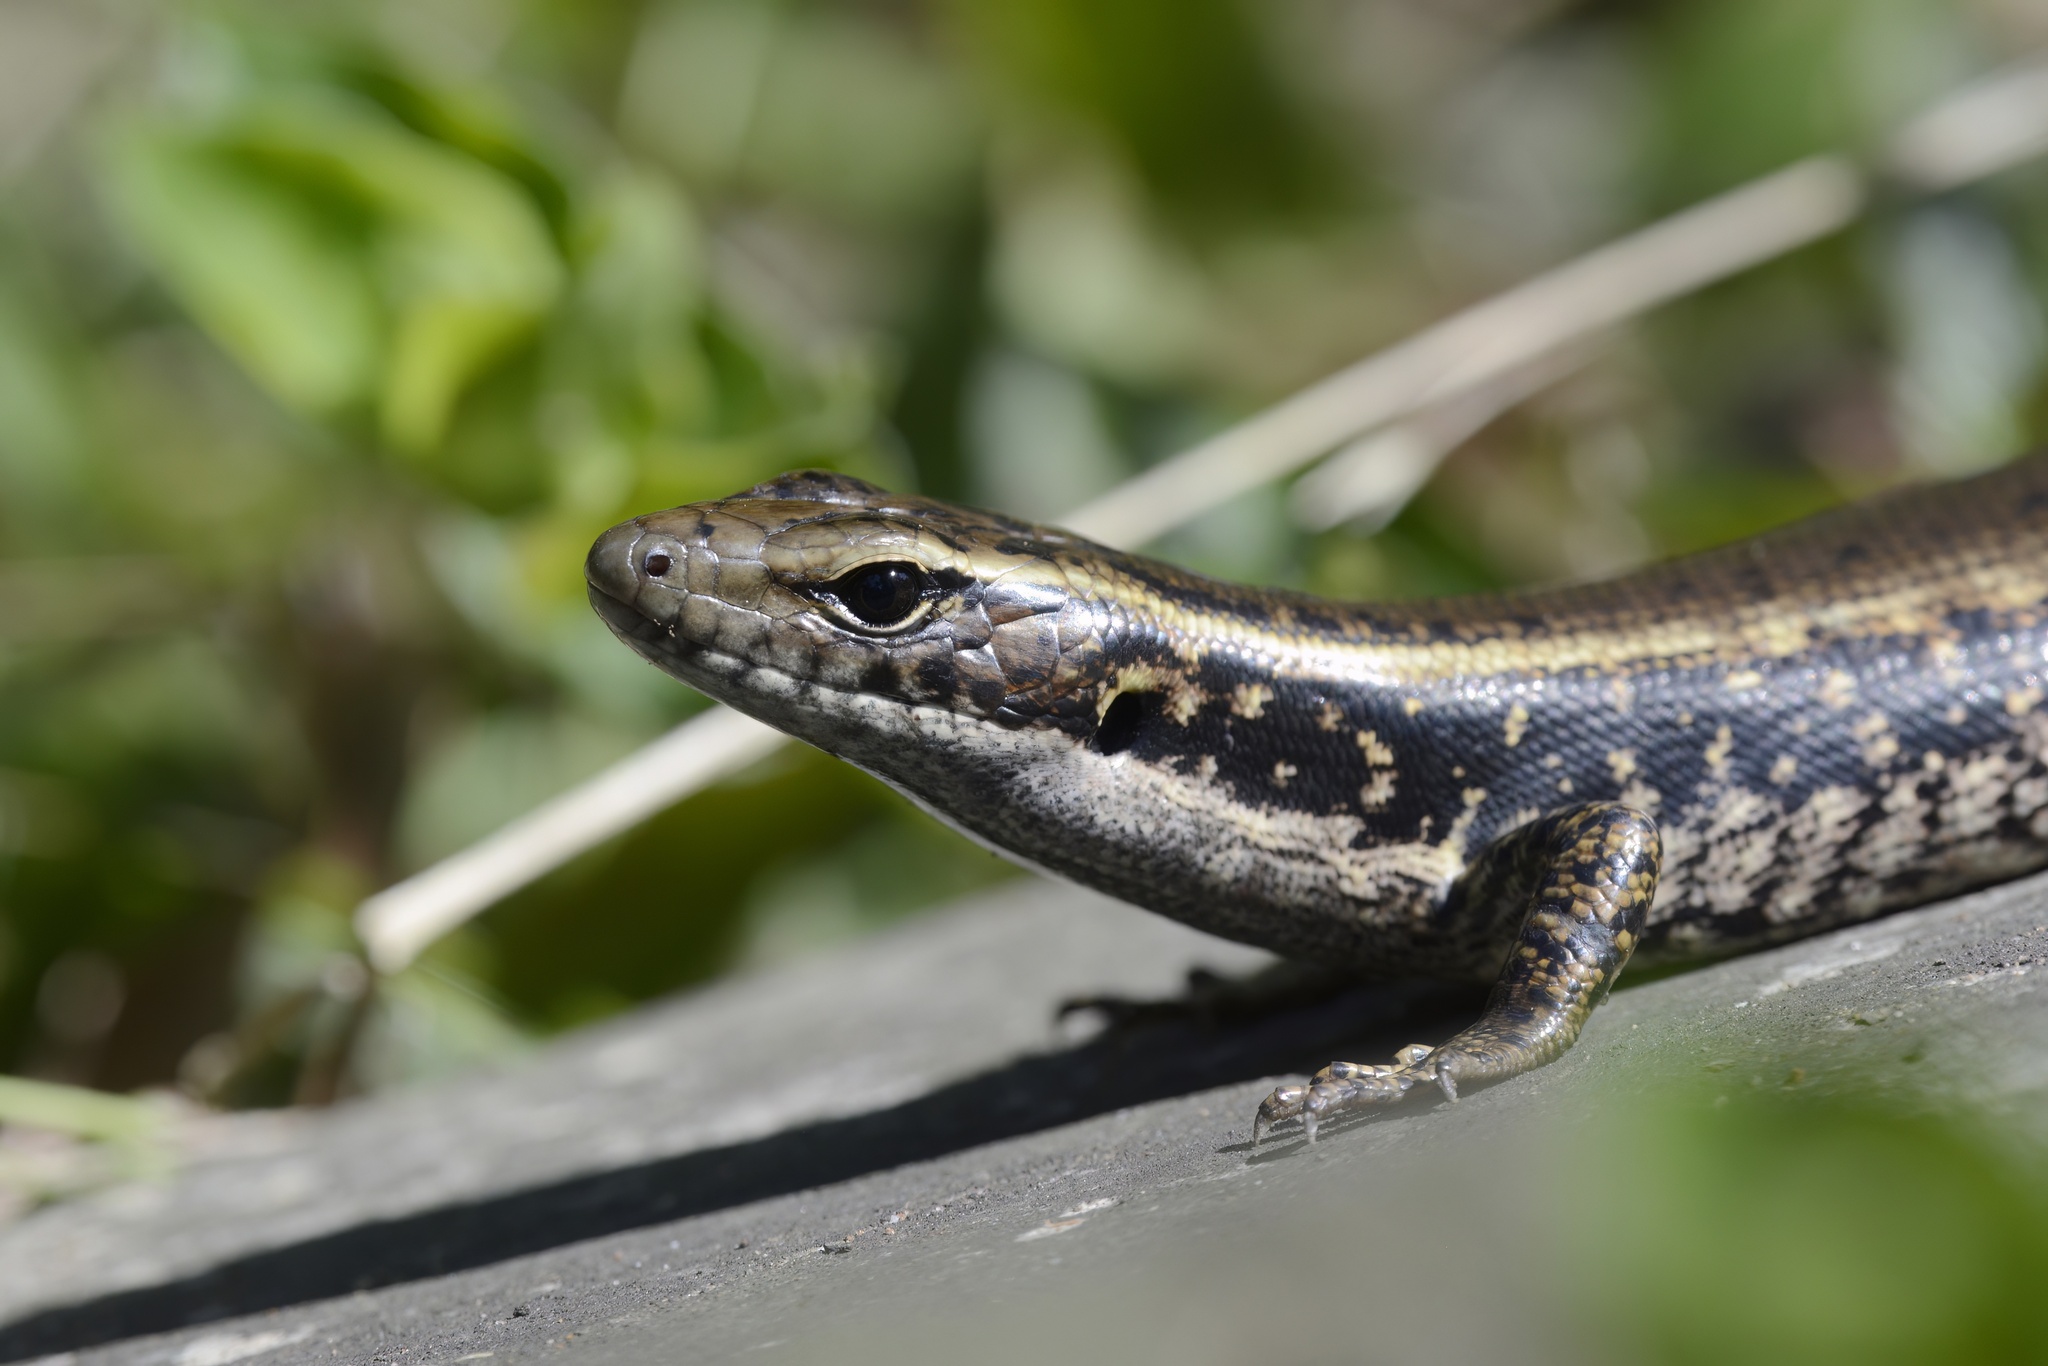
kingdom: Animalia
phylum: Chordata
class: Squamata
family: Scincidae
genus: Eulamprus
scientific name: Eulamprus quoyii
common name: Eastern water skink
